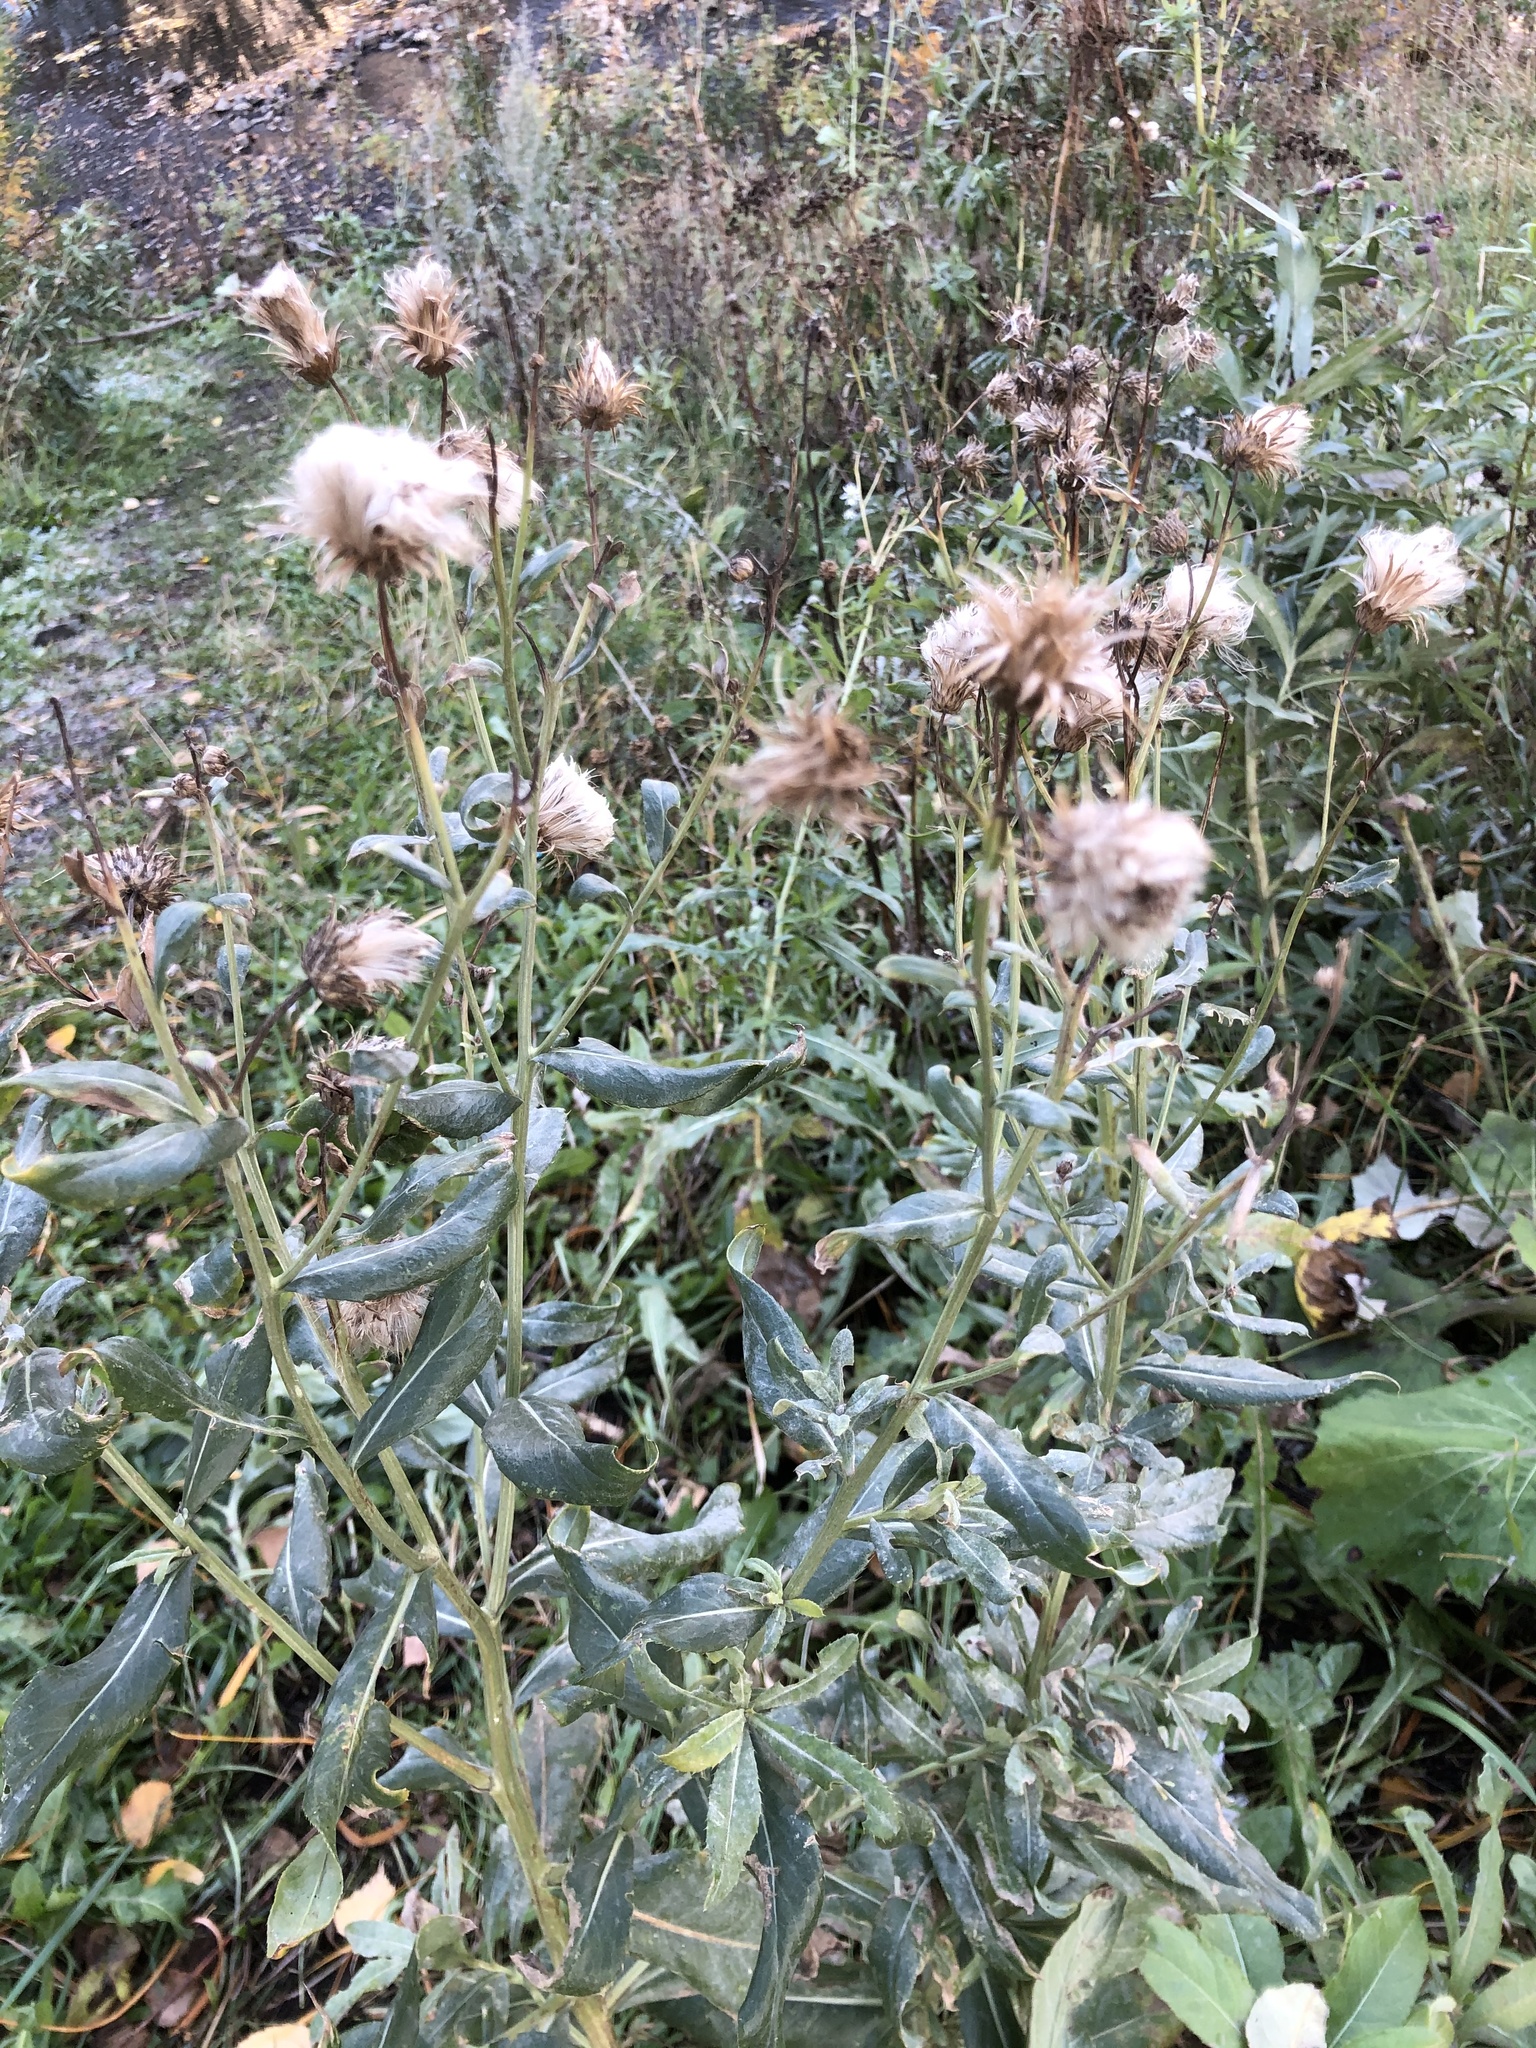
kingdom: Plantae
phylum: Tracheophyta
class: Magnoliopsida
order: Asterales
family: Asteraceae
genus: Cirsium
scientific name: Cirsium arvense
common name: Creeping thistle
